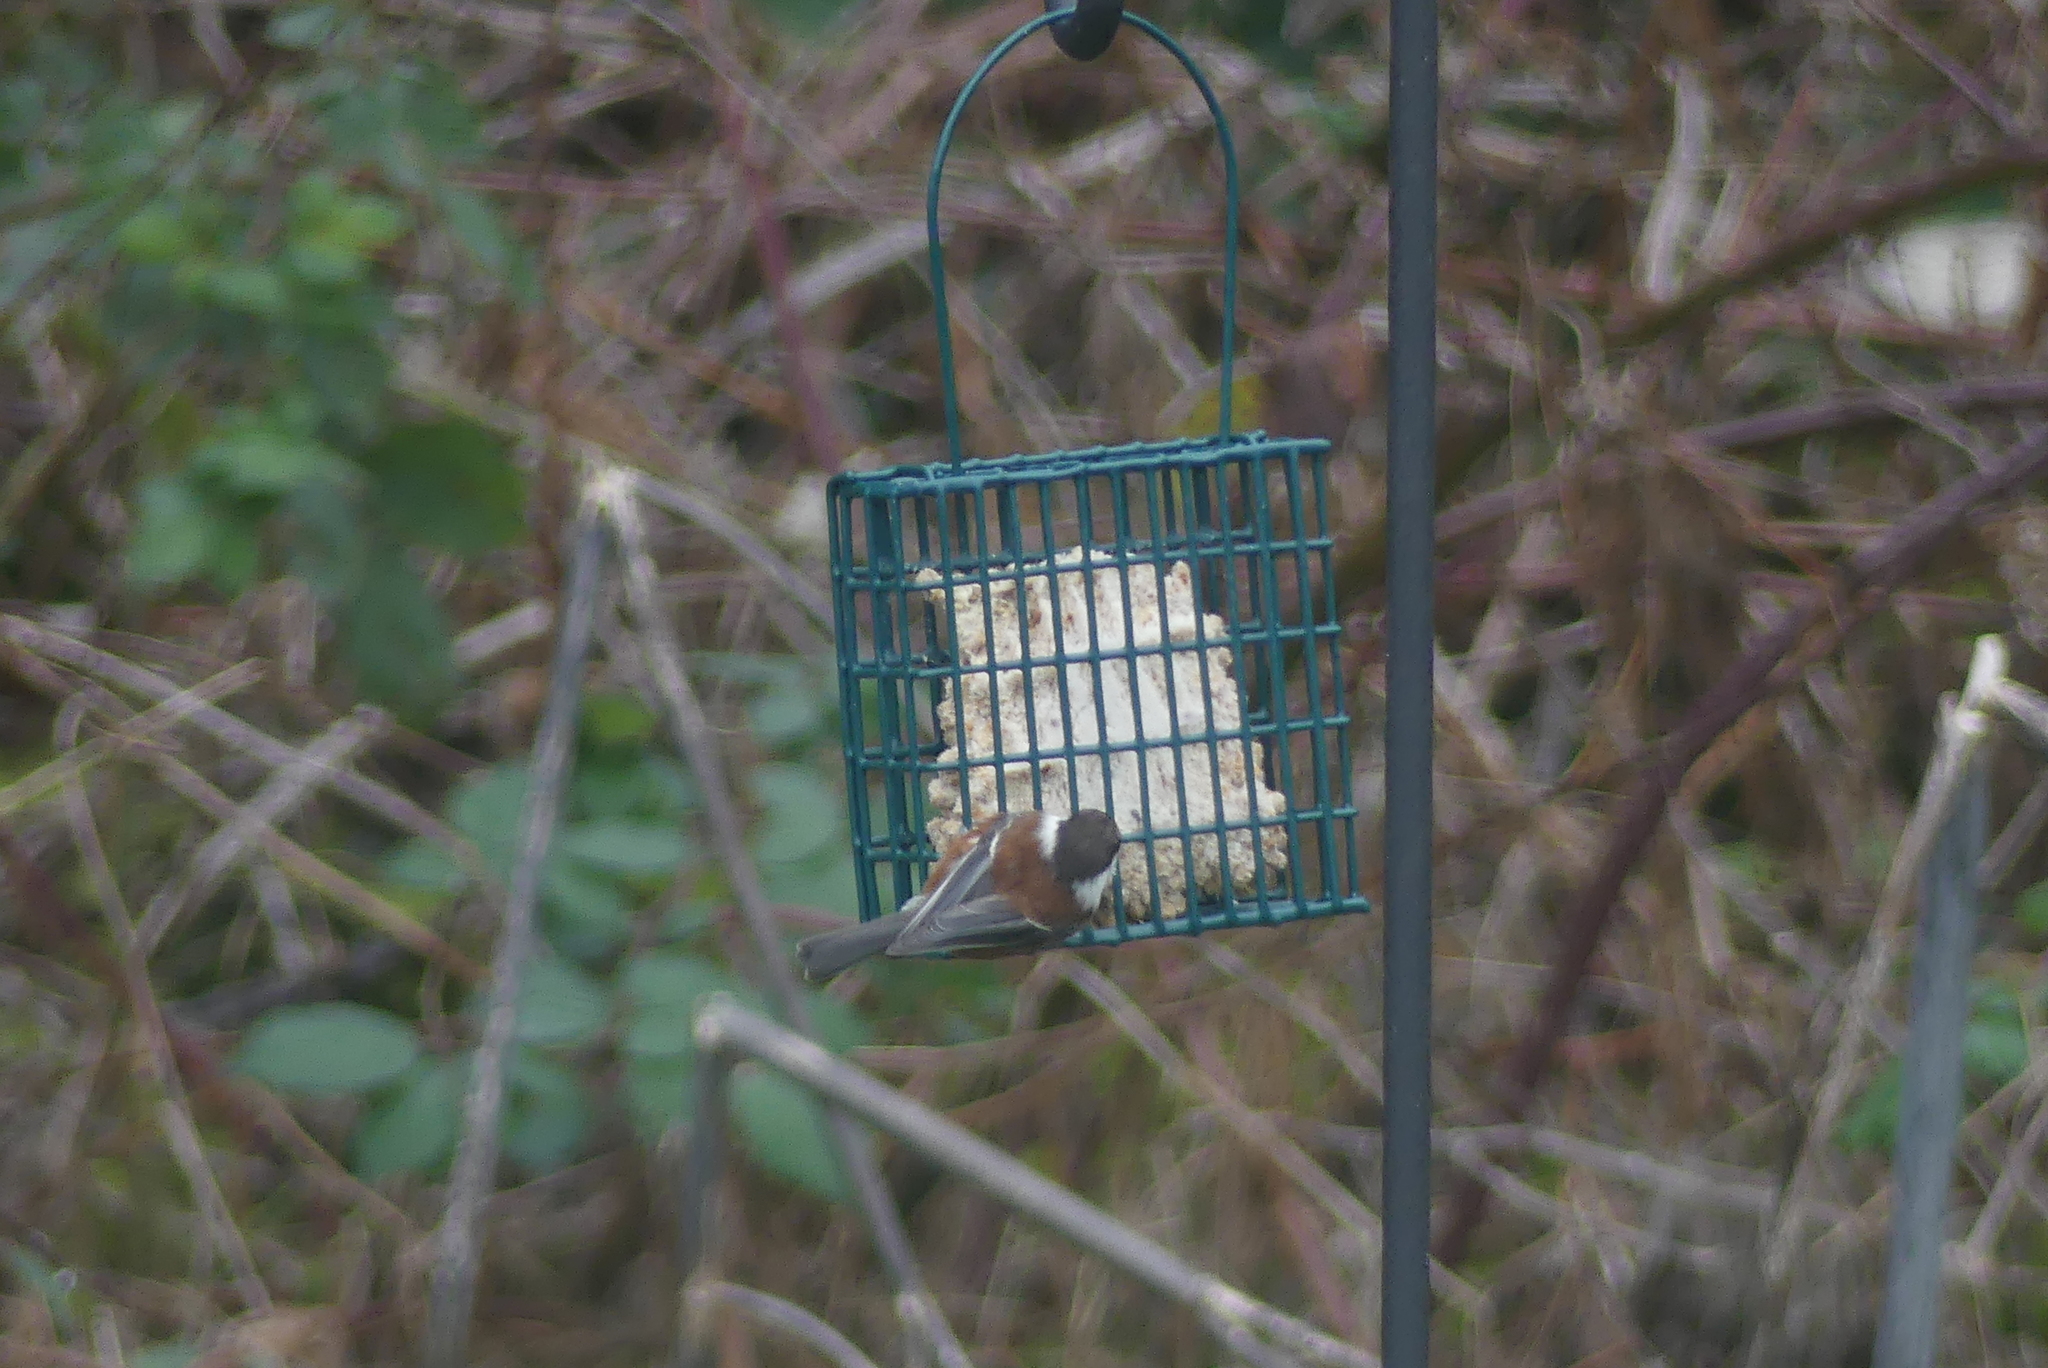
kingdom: Animalia
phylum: Chordata
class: Aves
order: Passeriformes
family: Paridae
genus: Poecile
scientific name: Poecile rufescens
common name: Chestnut-backed chickadee
